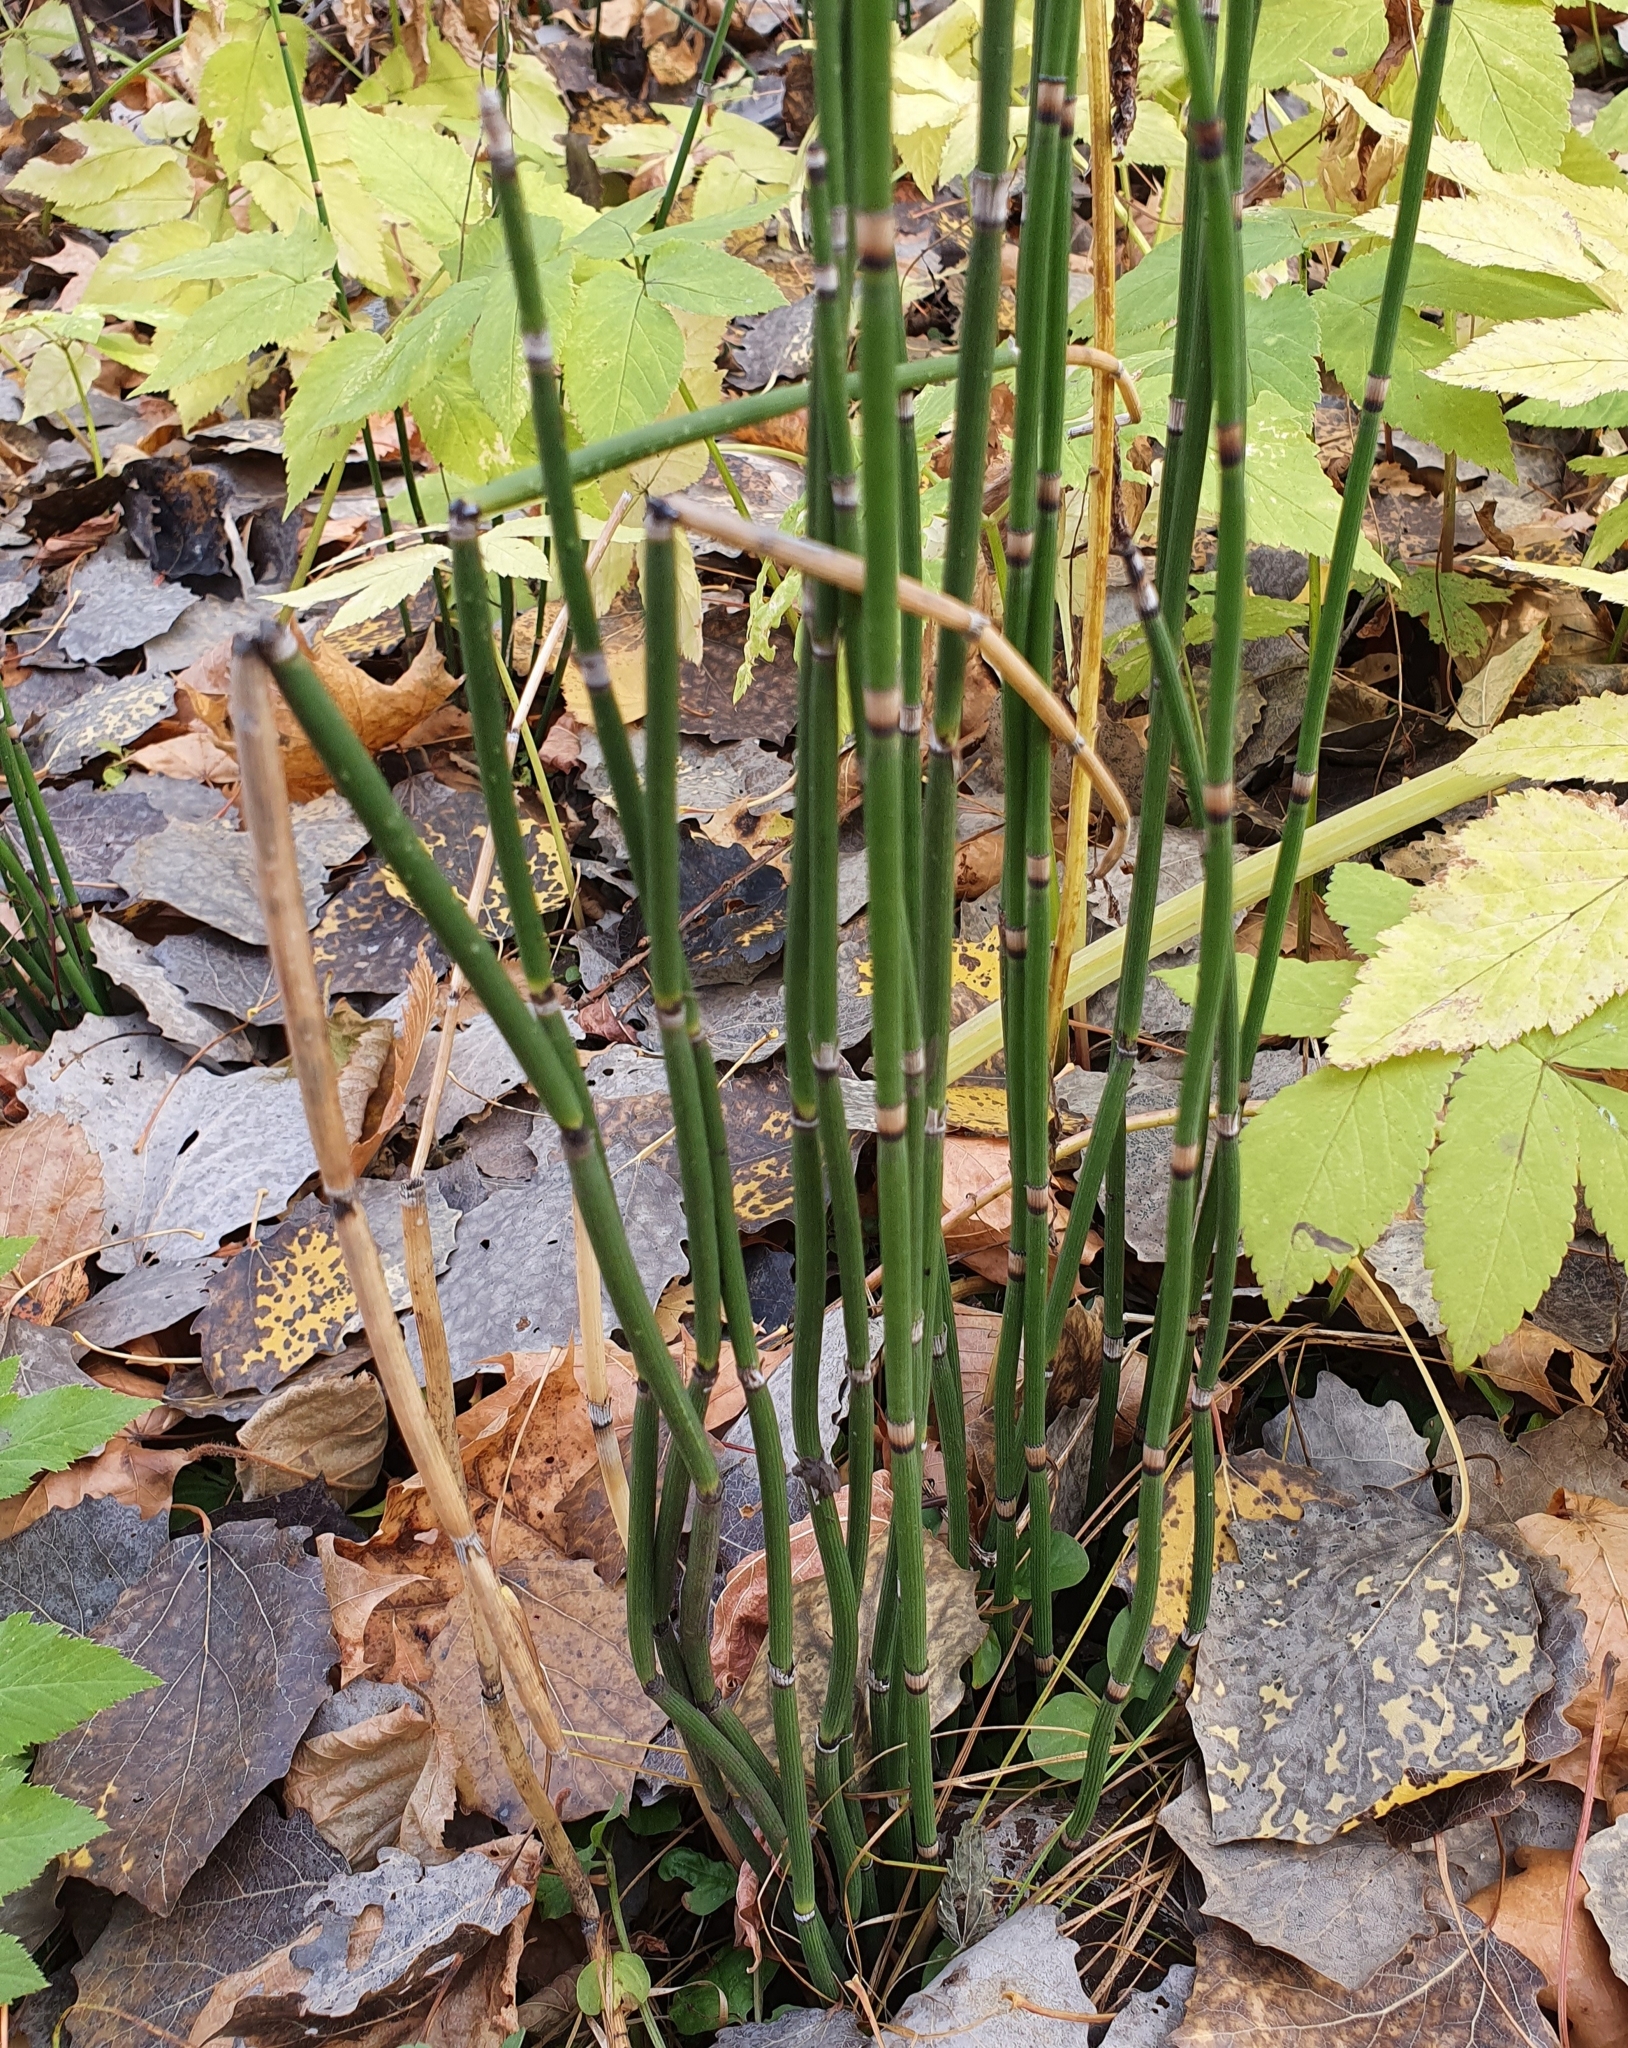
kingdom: Plantae
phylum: Tracheophyta
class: Polypodiopsida
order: Equisetales
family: Equisetaceae
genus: Equisetum
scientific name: Equisetum hyemale
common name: Rough horsetail
